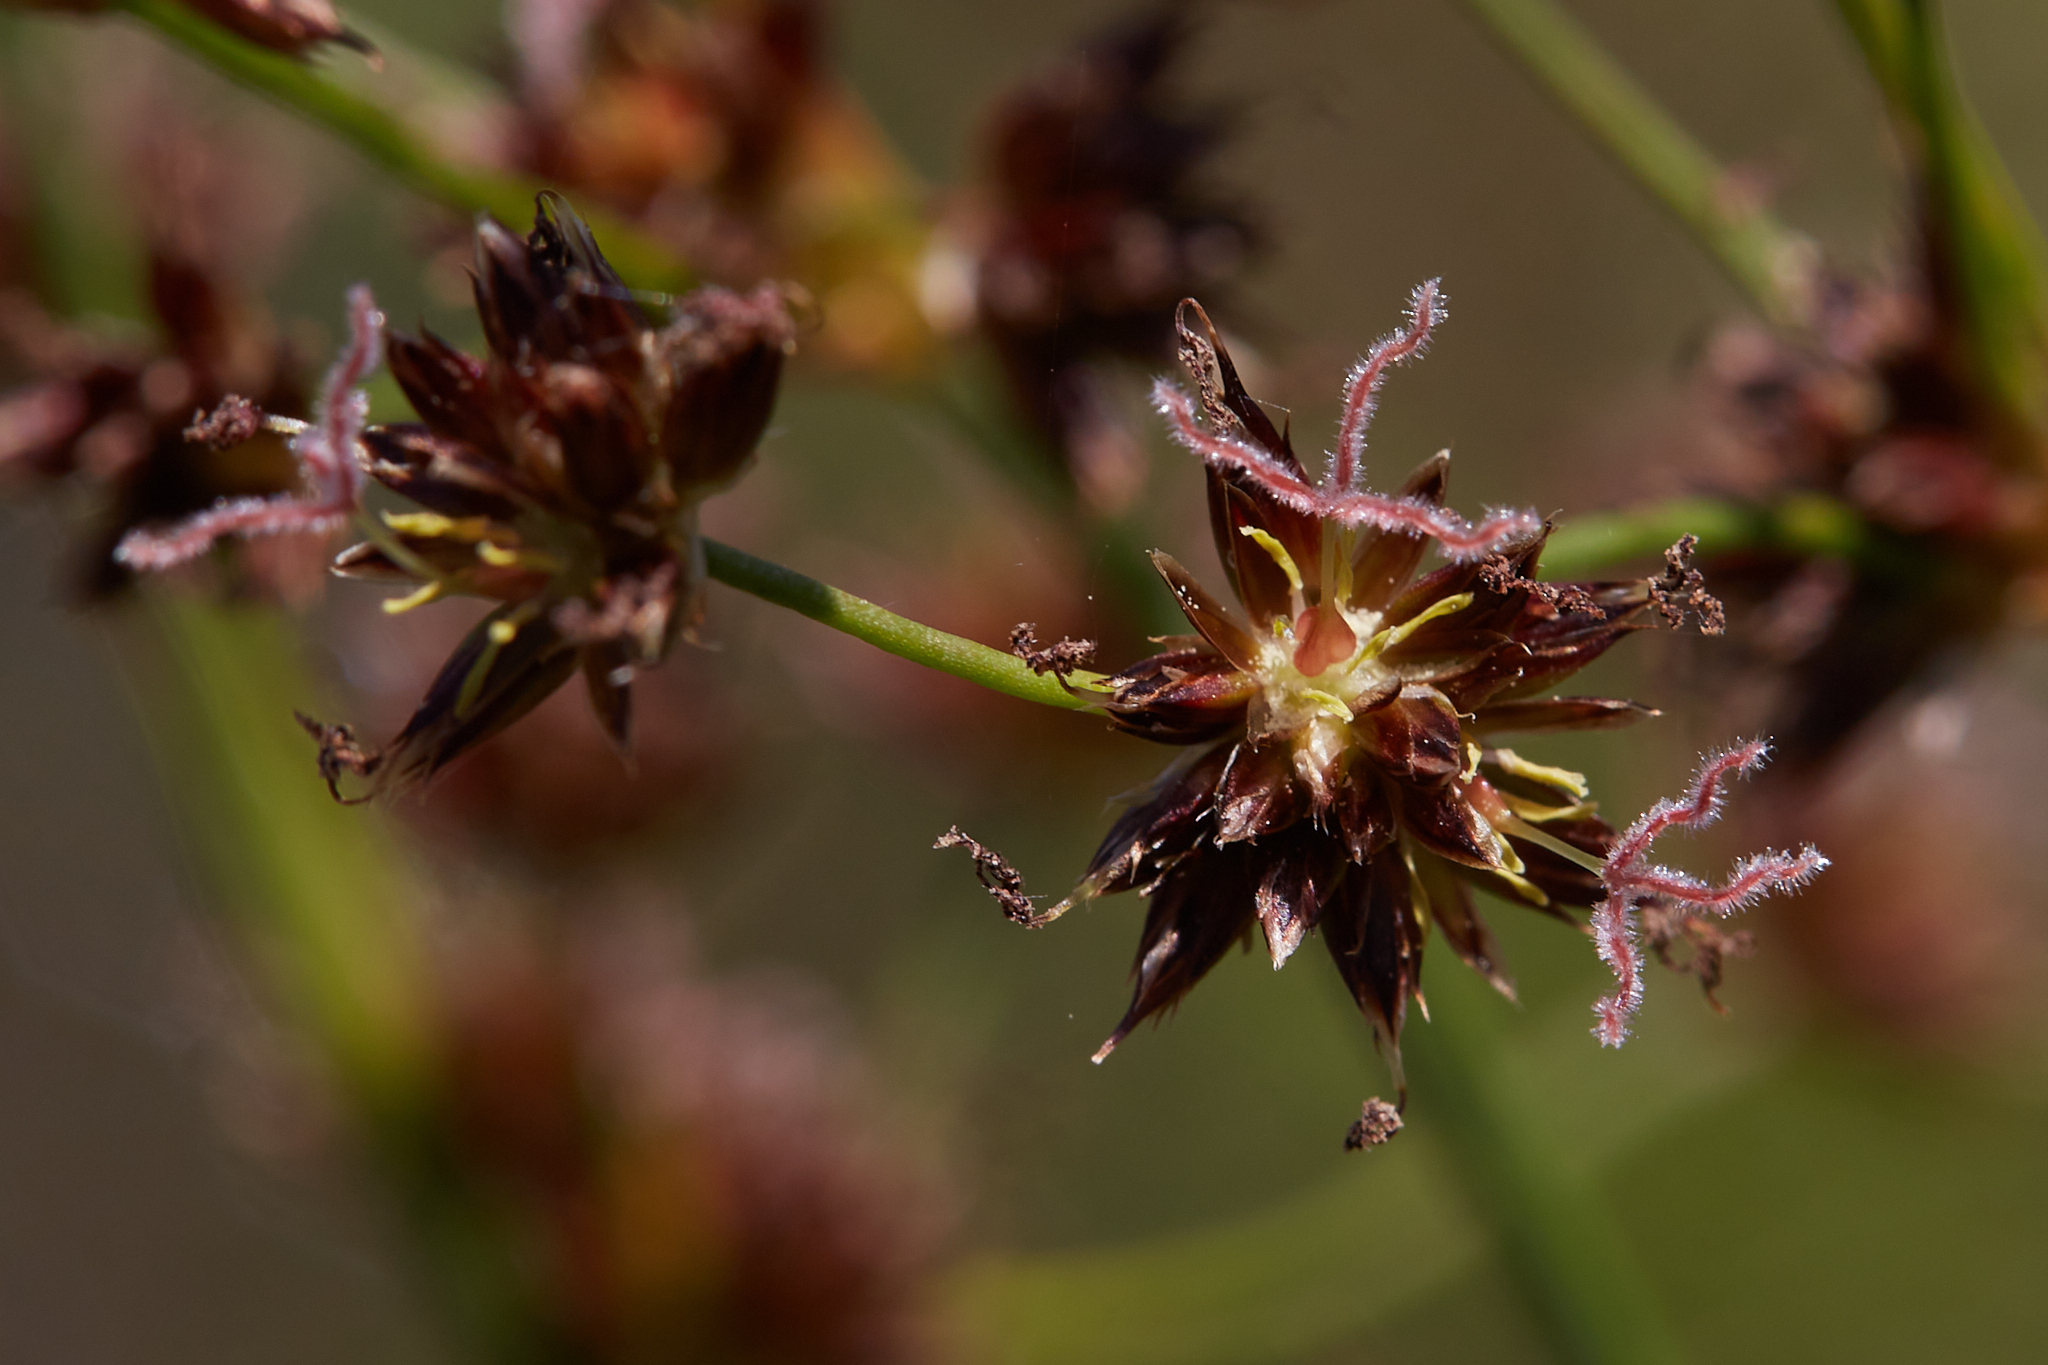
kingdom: Plantae
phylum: Tracheophyta
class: Liliopsida
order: Poales
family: Juncaceae
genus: Juncus
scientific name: Juncus phaeocephalus
